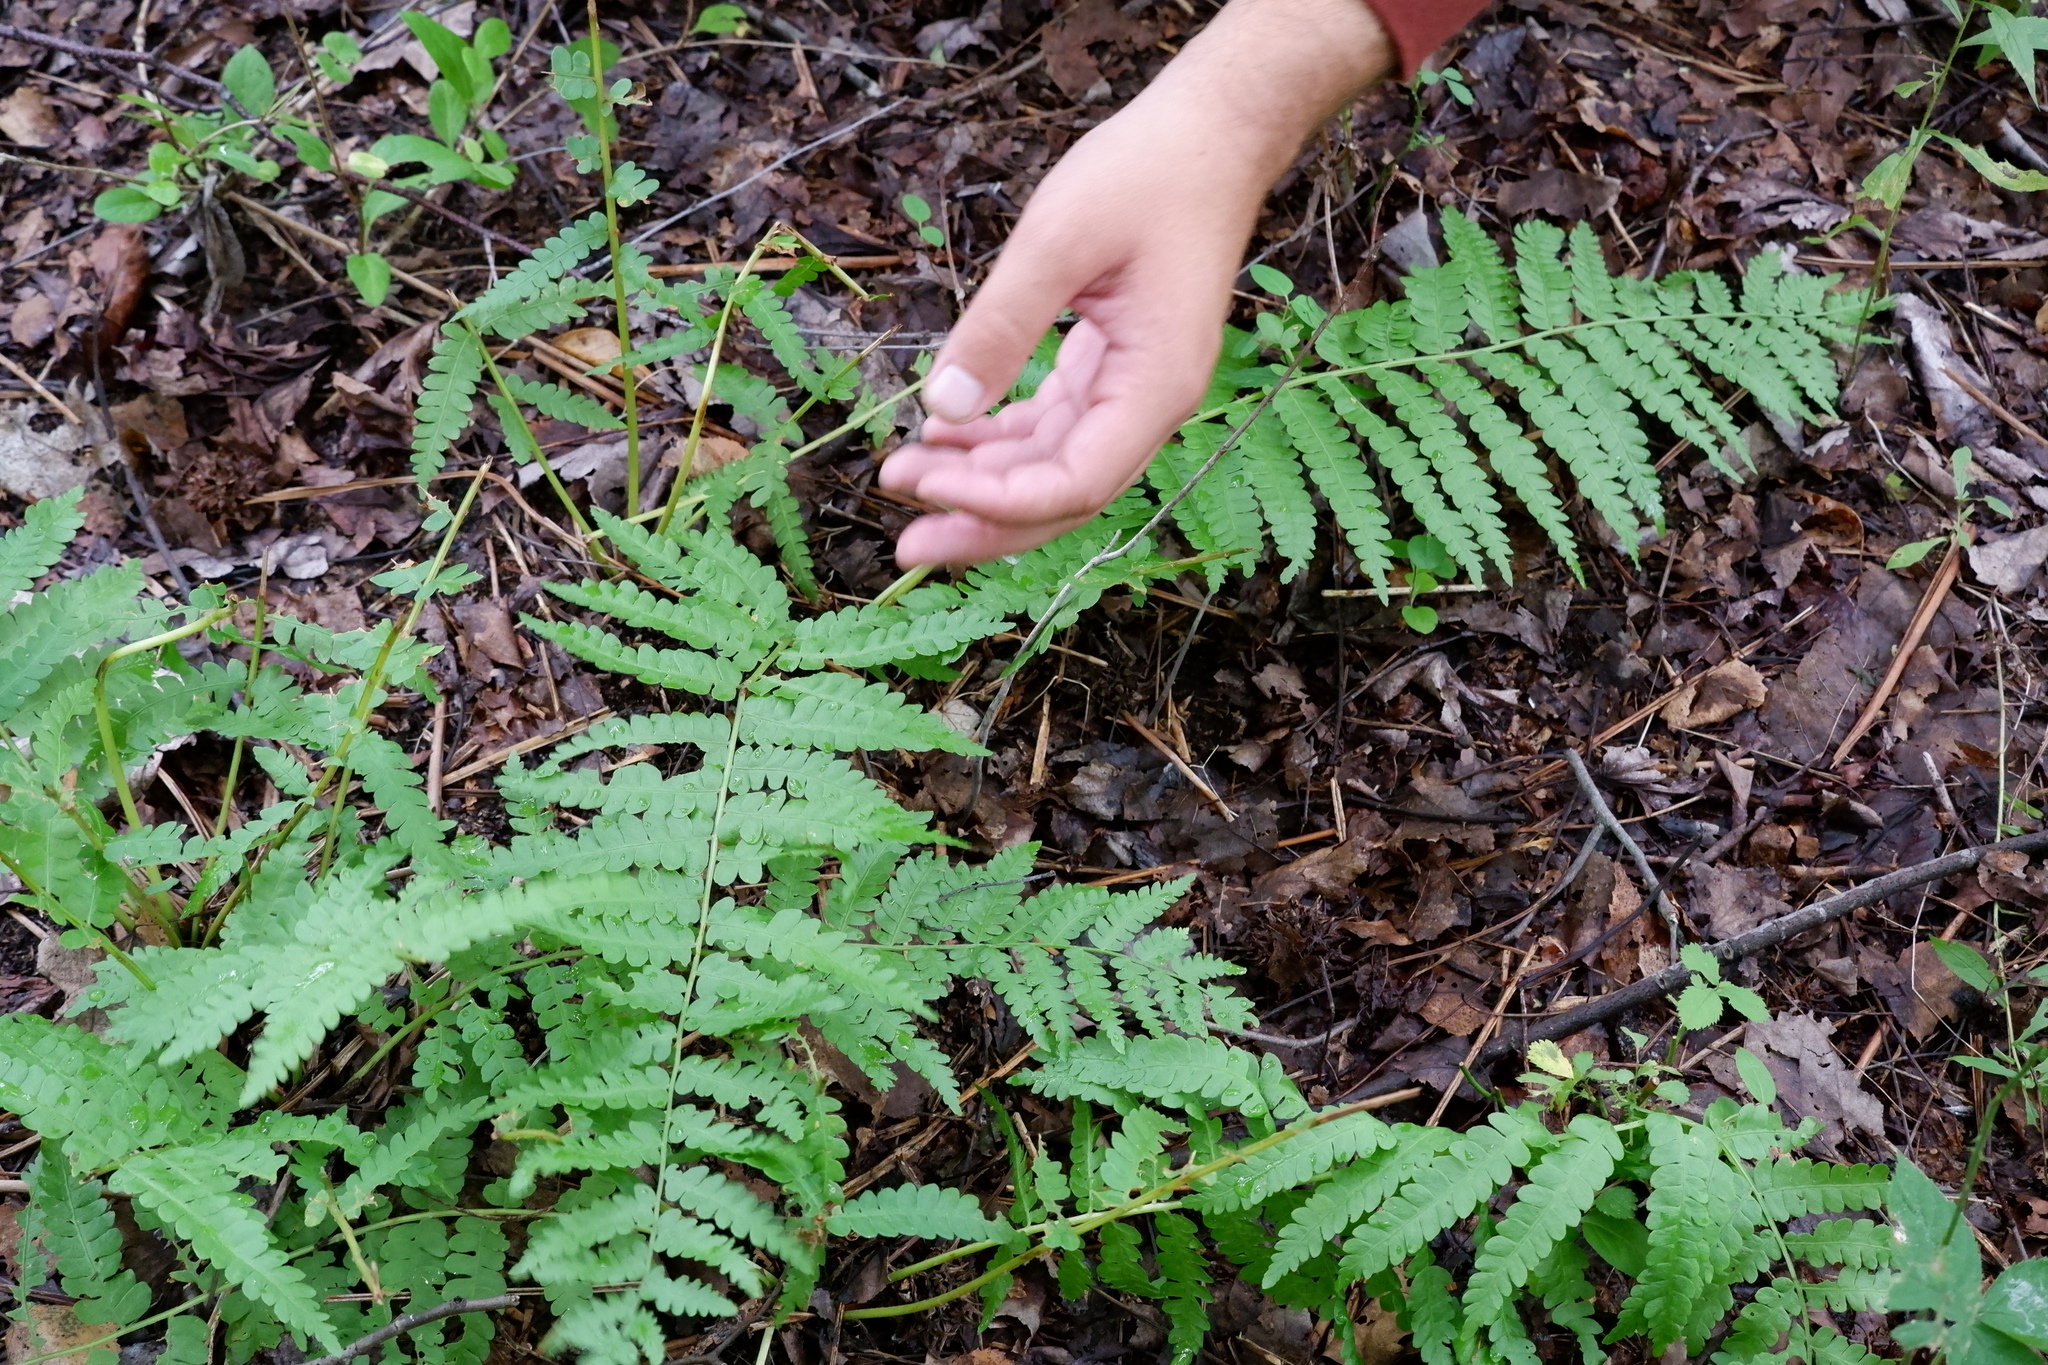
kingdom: Plantae
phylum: Tracheophyta
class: Polypodiopsida
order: Osmundales
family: Osmundaceae
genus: Osmundastrum
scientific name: Osmundastrum cinnamomeum
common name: Cinnamon fern
